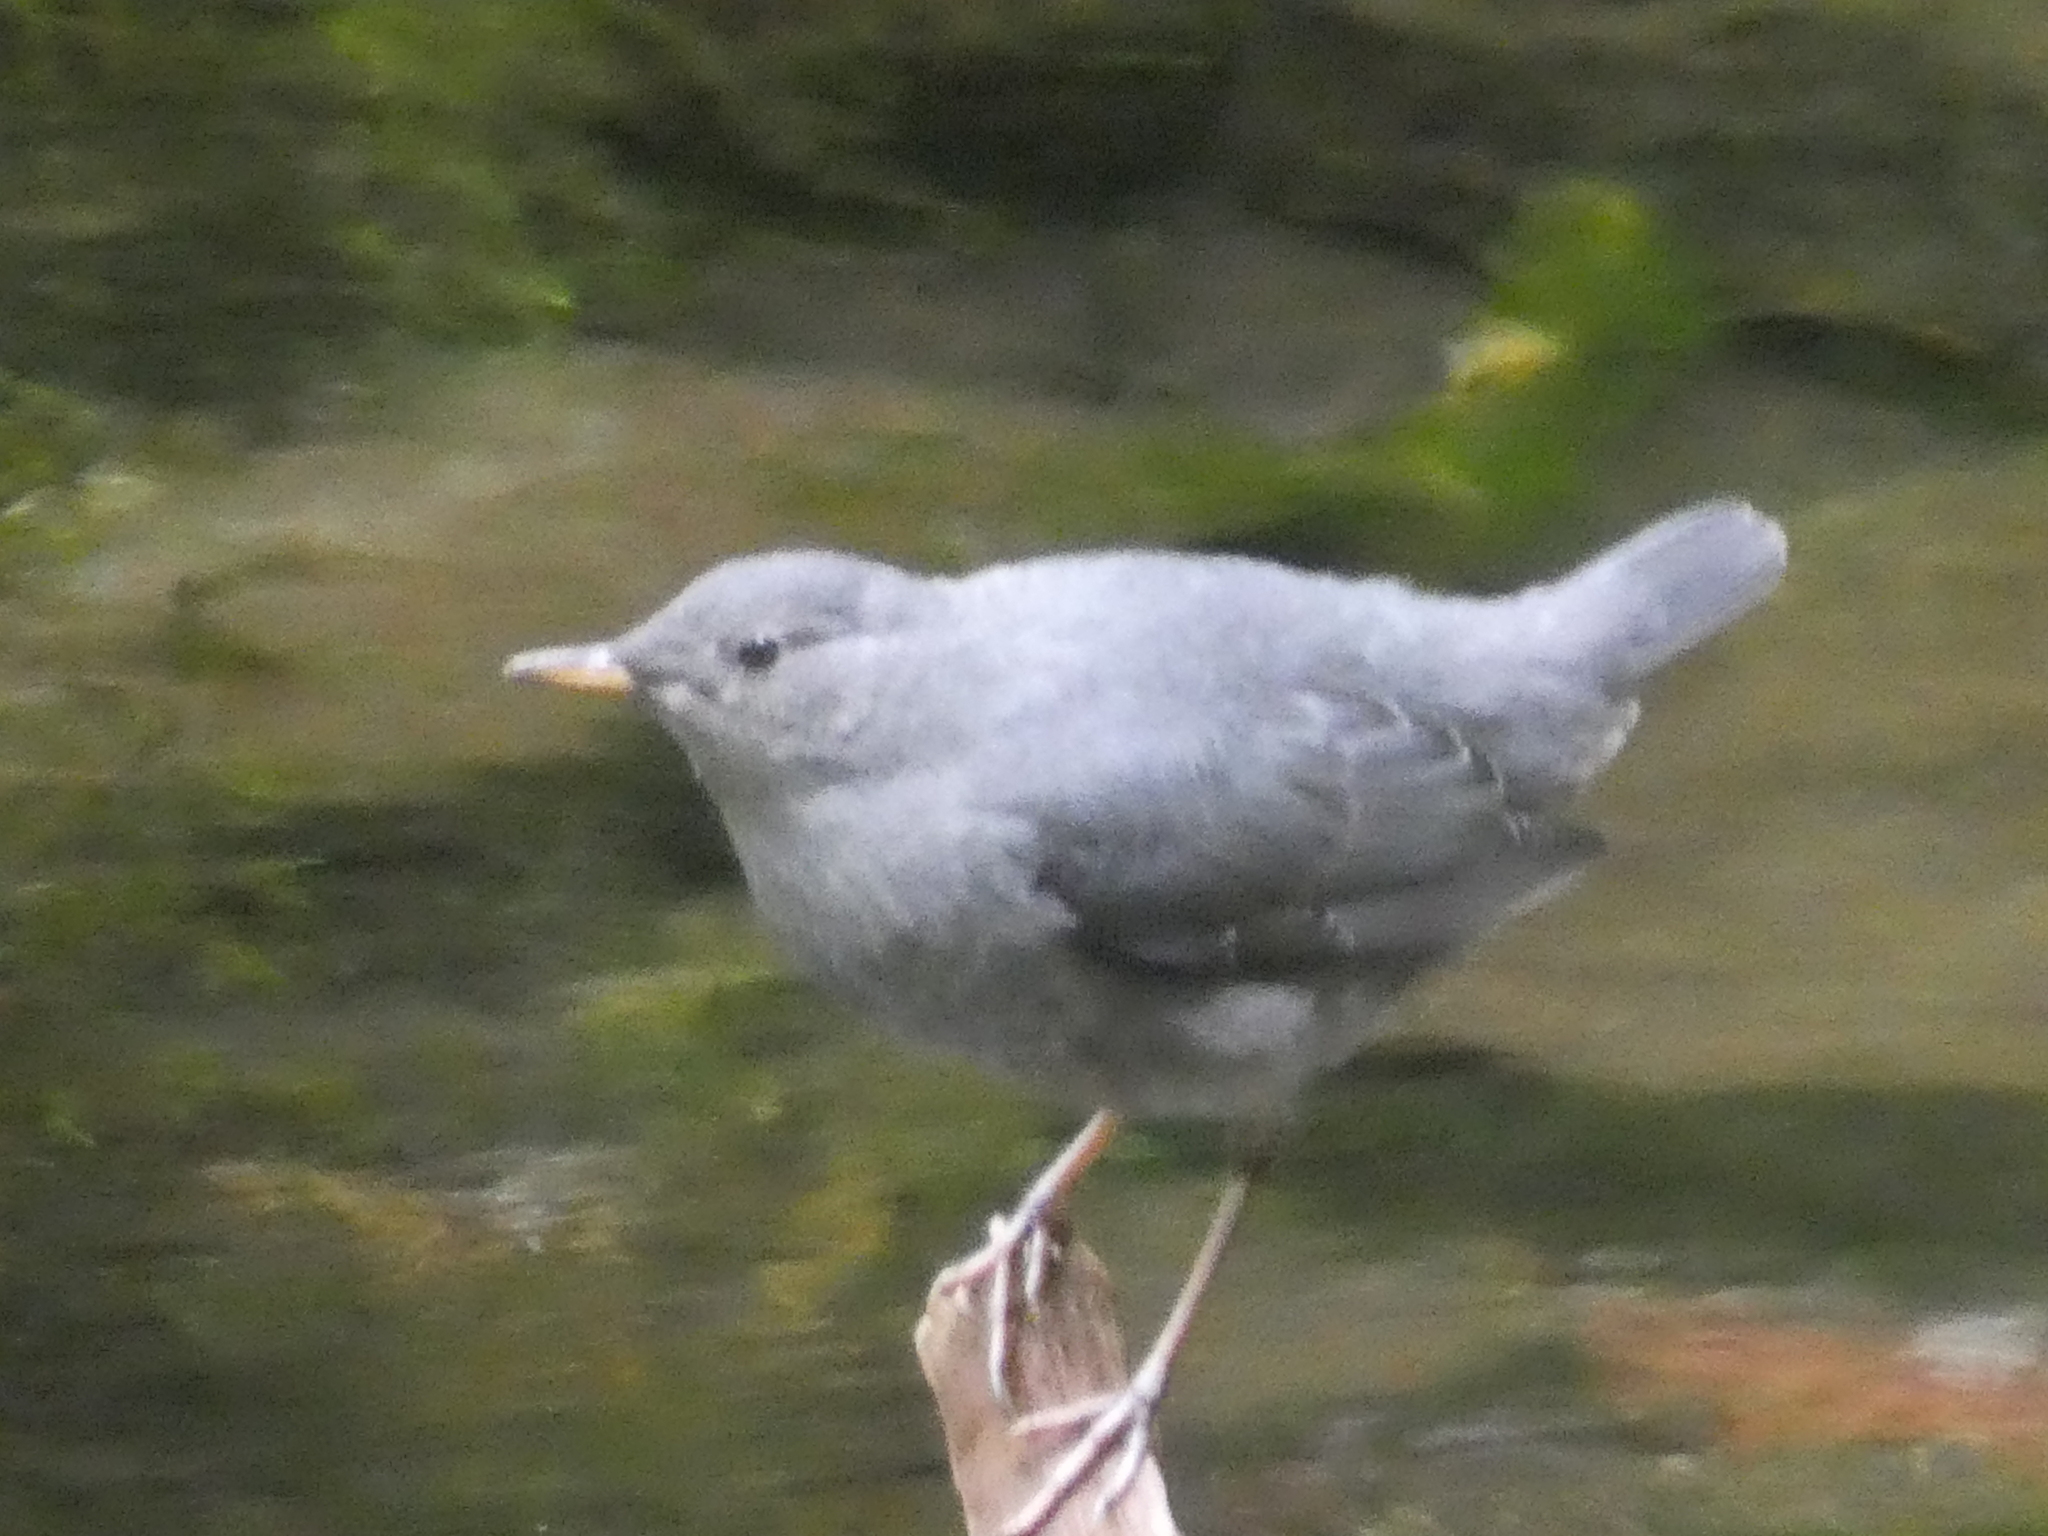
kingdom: Animalia
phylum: Chordata
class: Aves
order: Passeriformes
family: Cinclidae
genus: Cinclus
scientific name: Cinclus mexicanus
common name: American dipper
